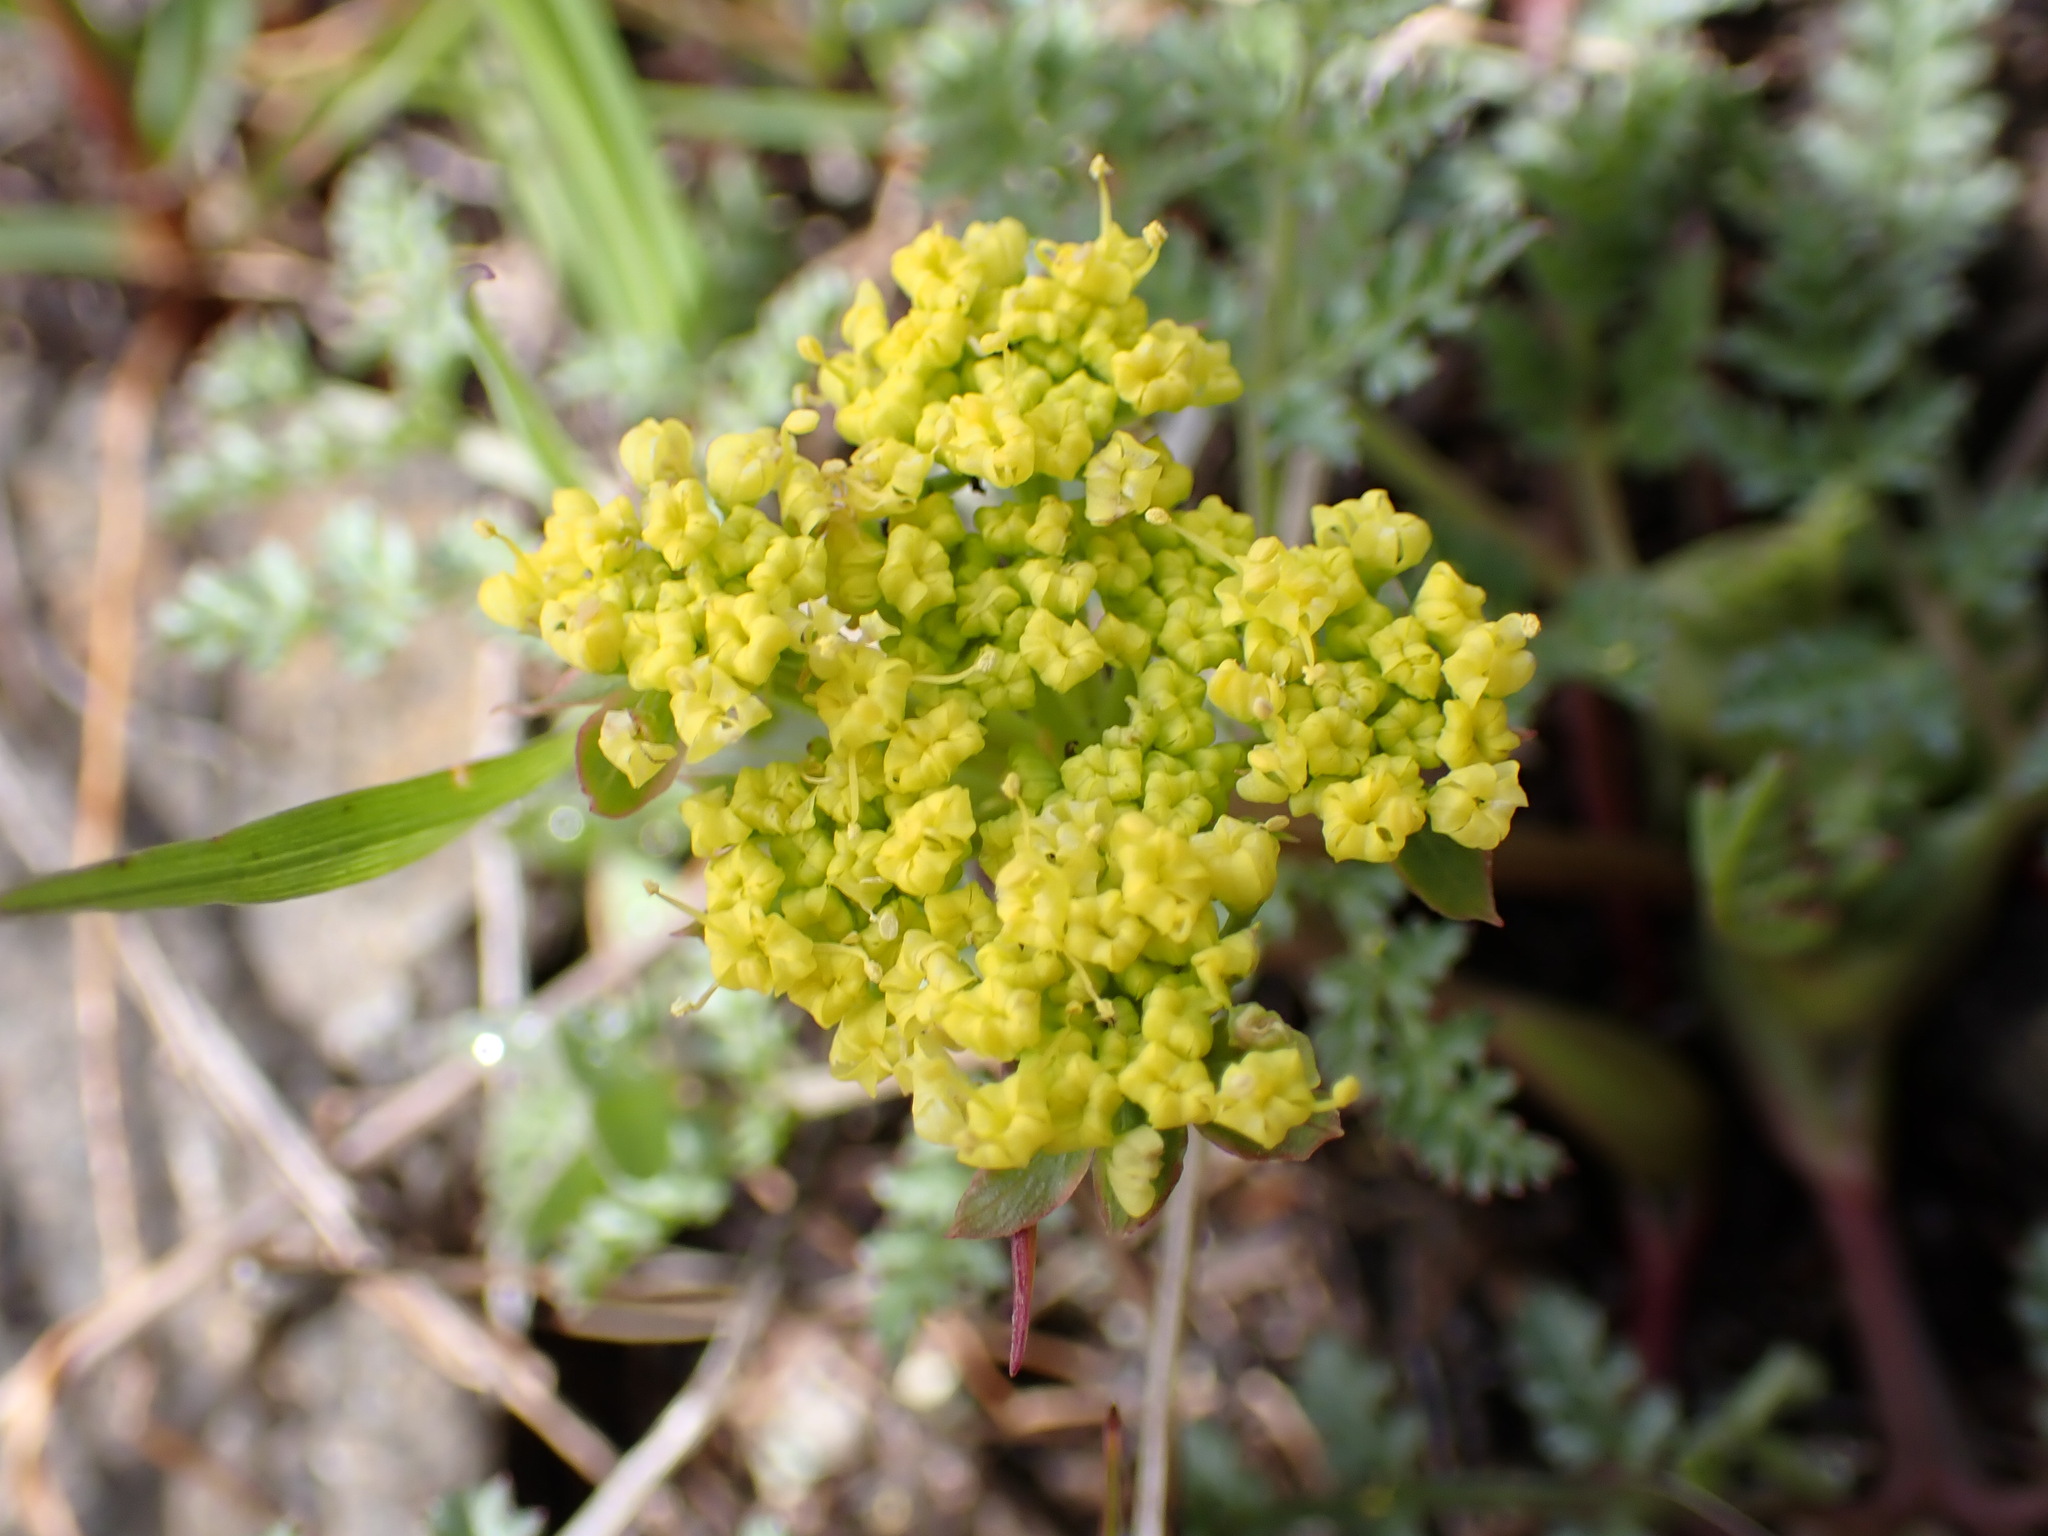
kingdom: Plantae
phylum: Tracheophyta
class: Magnoliopsida
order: Apiales
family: Apiaceae
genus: Lomatium
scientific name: Lomatium utriculatum
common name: Fine-leaf desert-parsley
